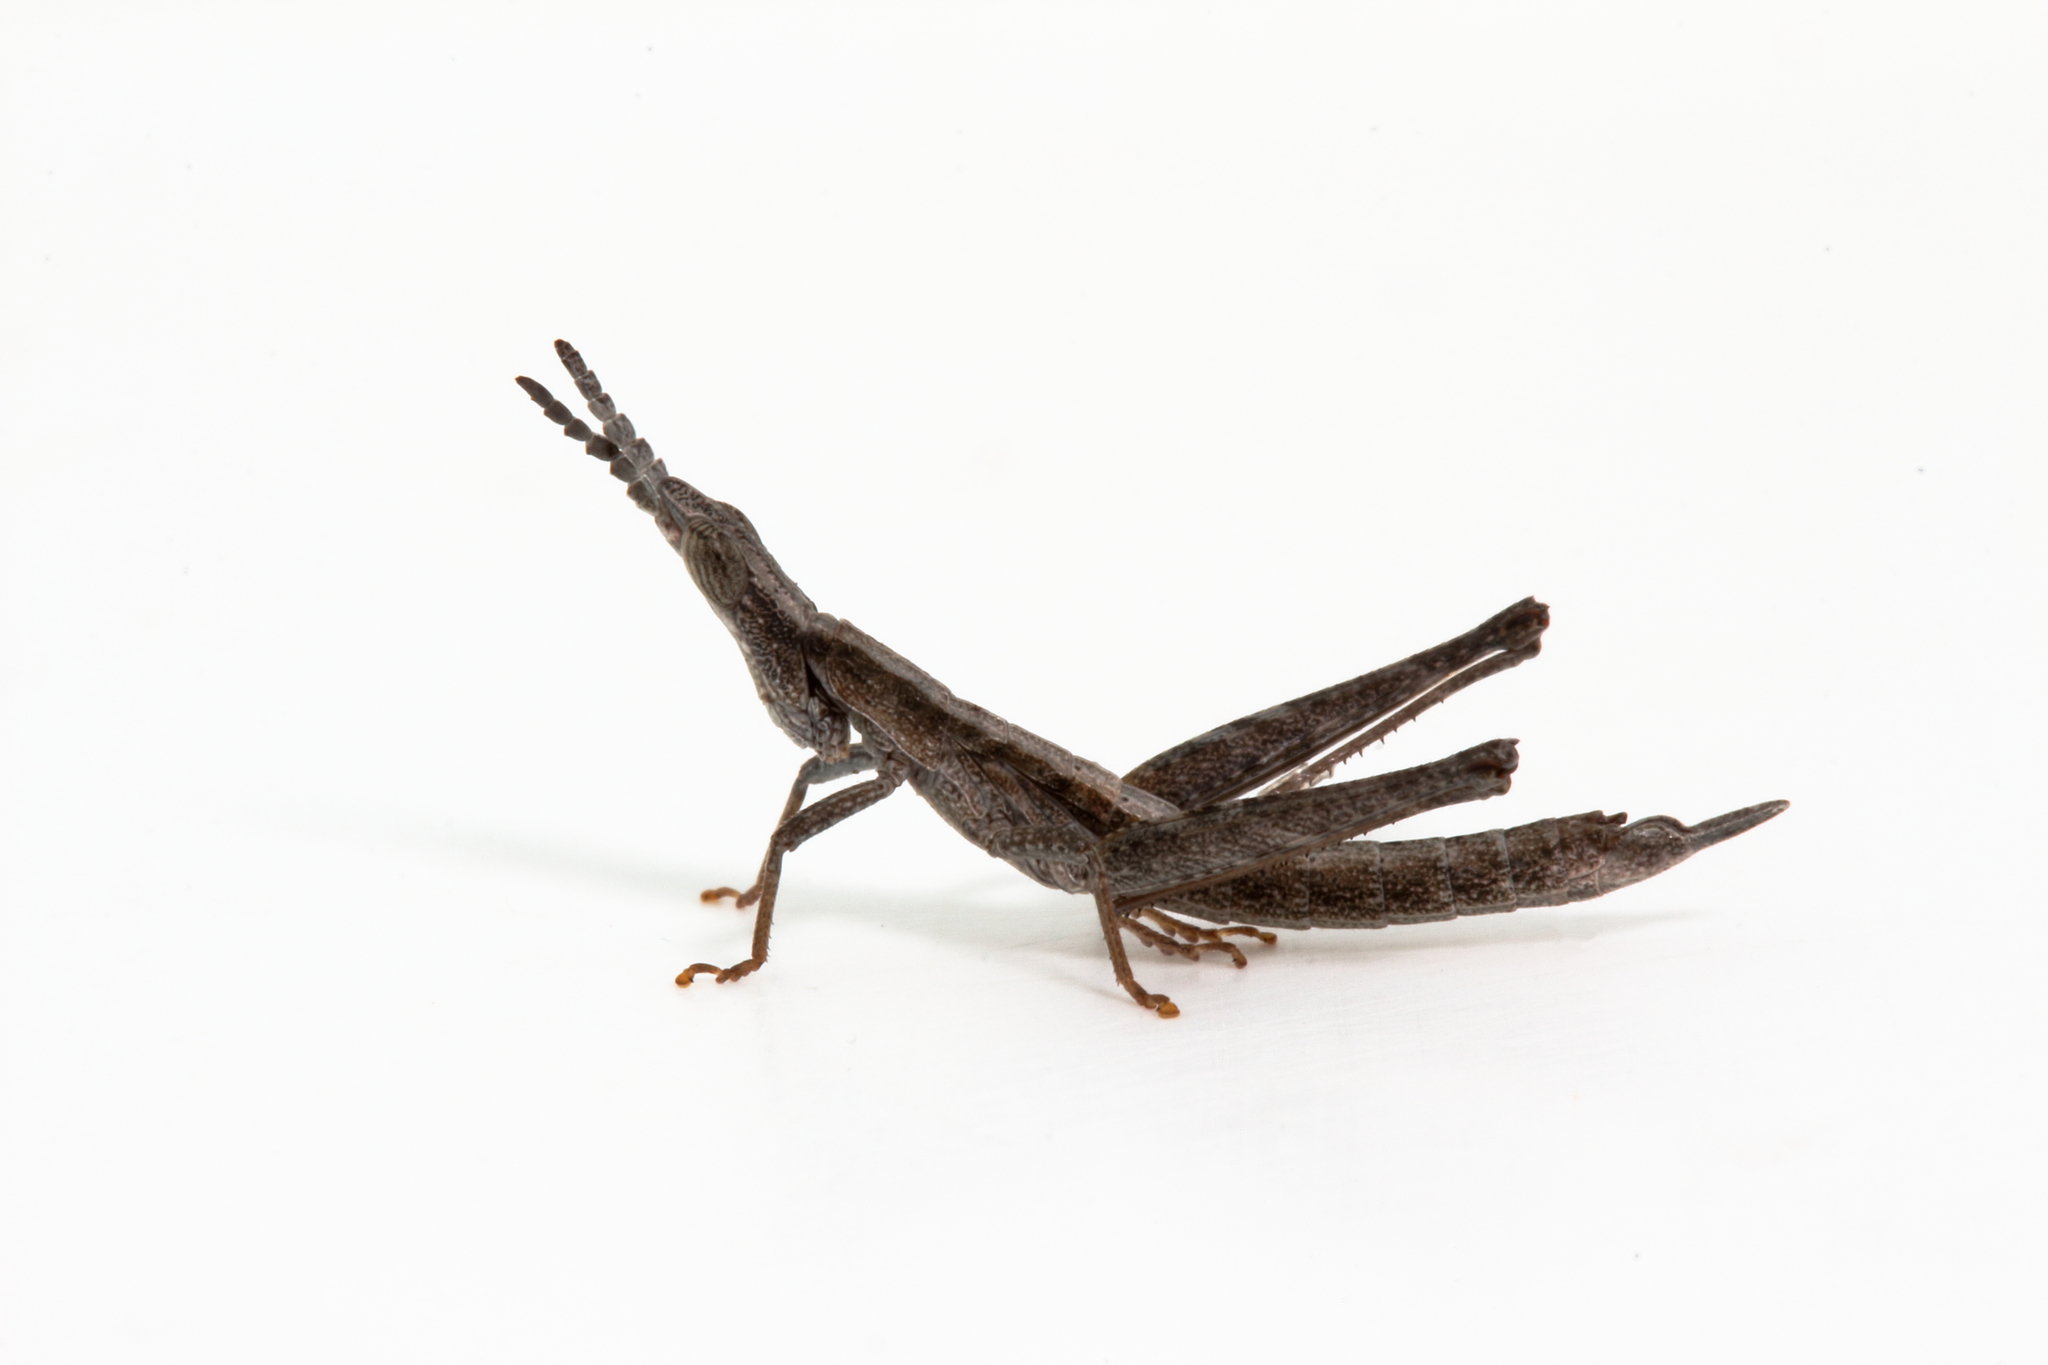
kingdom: Animalia
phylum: Arthropoda
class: Insecta
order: Orthoptera
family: Morabidae
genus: Keyacris
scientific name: Keyacris scurra
